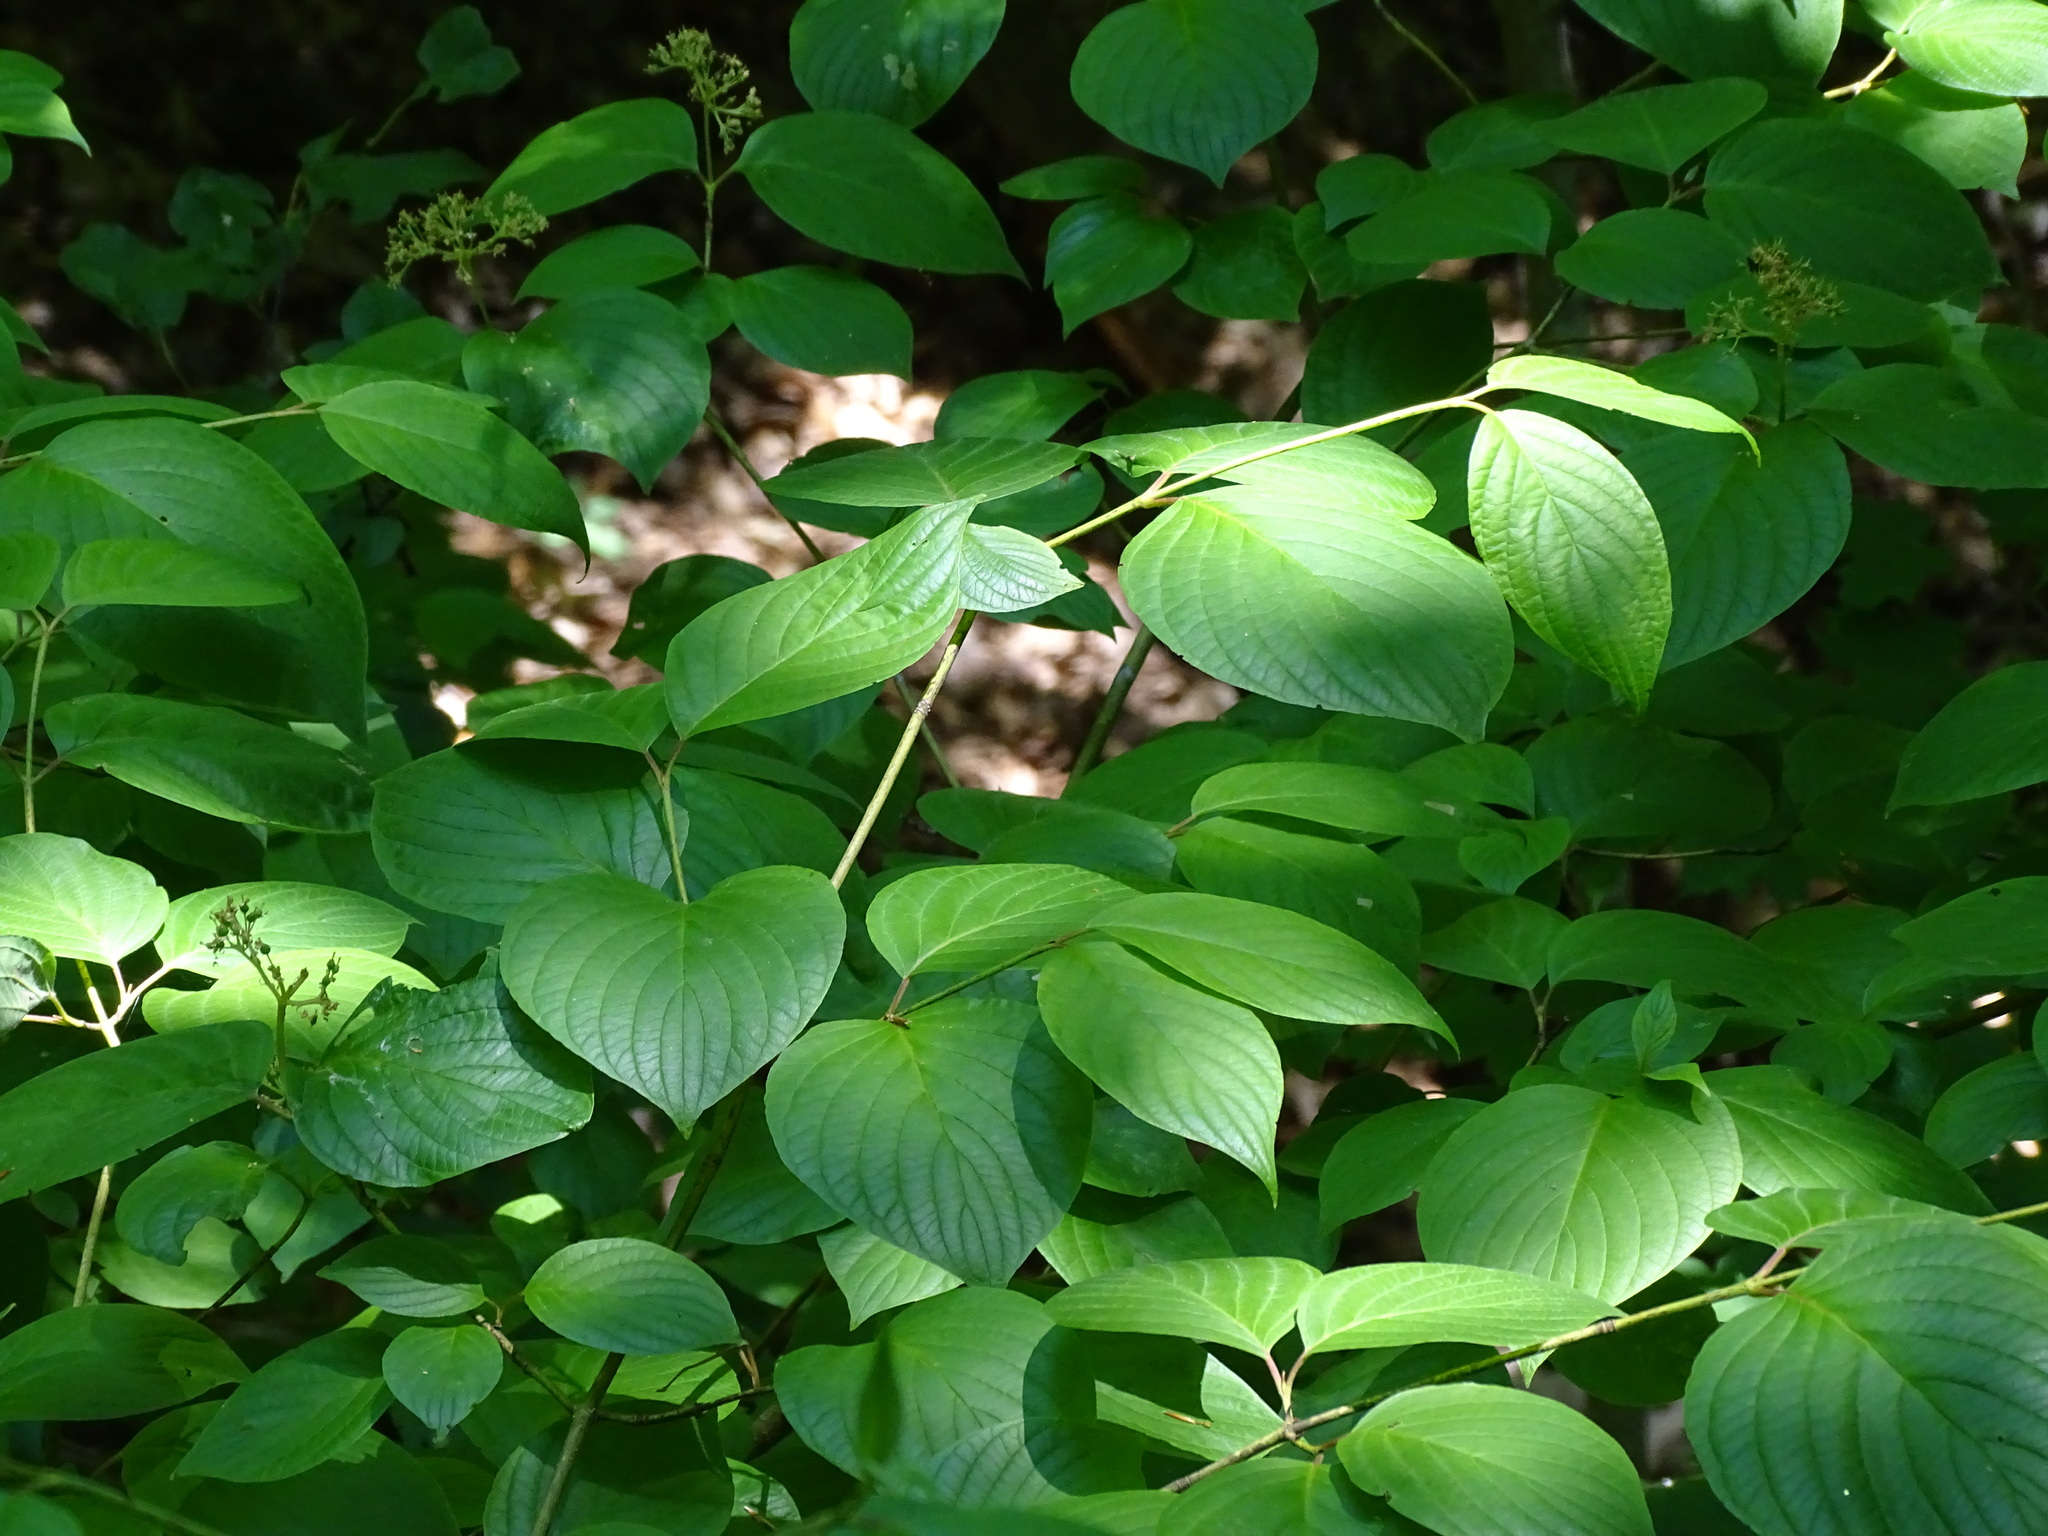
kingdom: Plantae
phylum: Tracheophyta
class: Magnoliopsida
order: Cornales
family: Cornaceae
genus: Cornus
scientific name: Cornus rugosa
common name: Round-leaf dogwood
